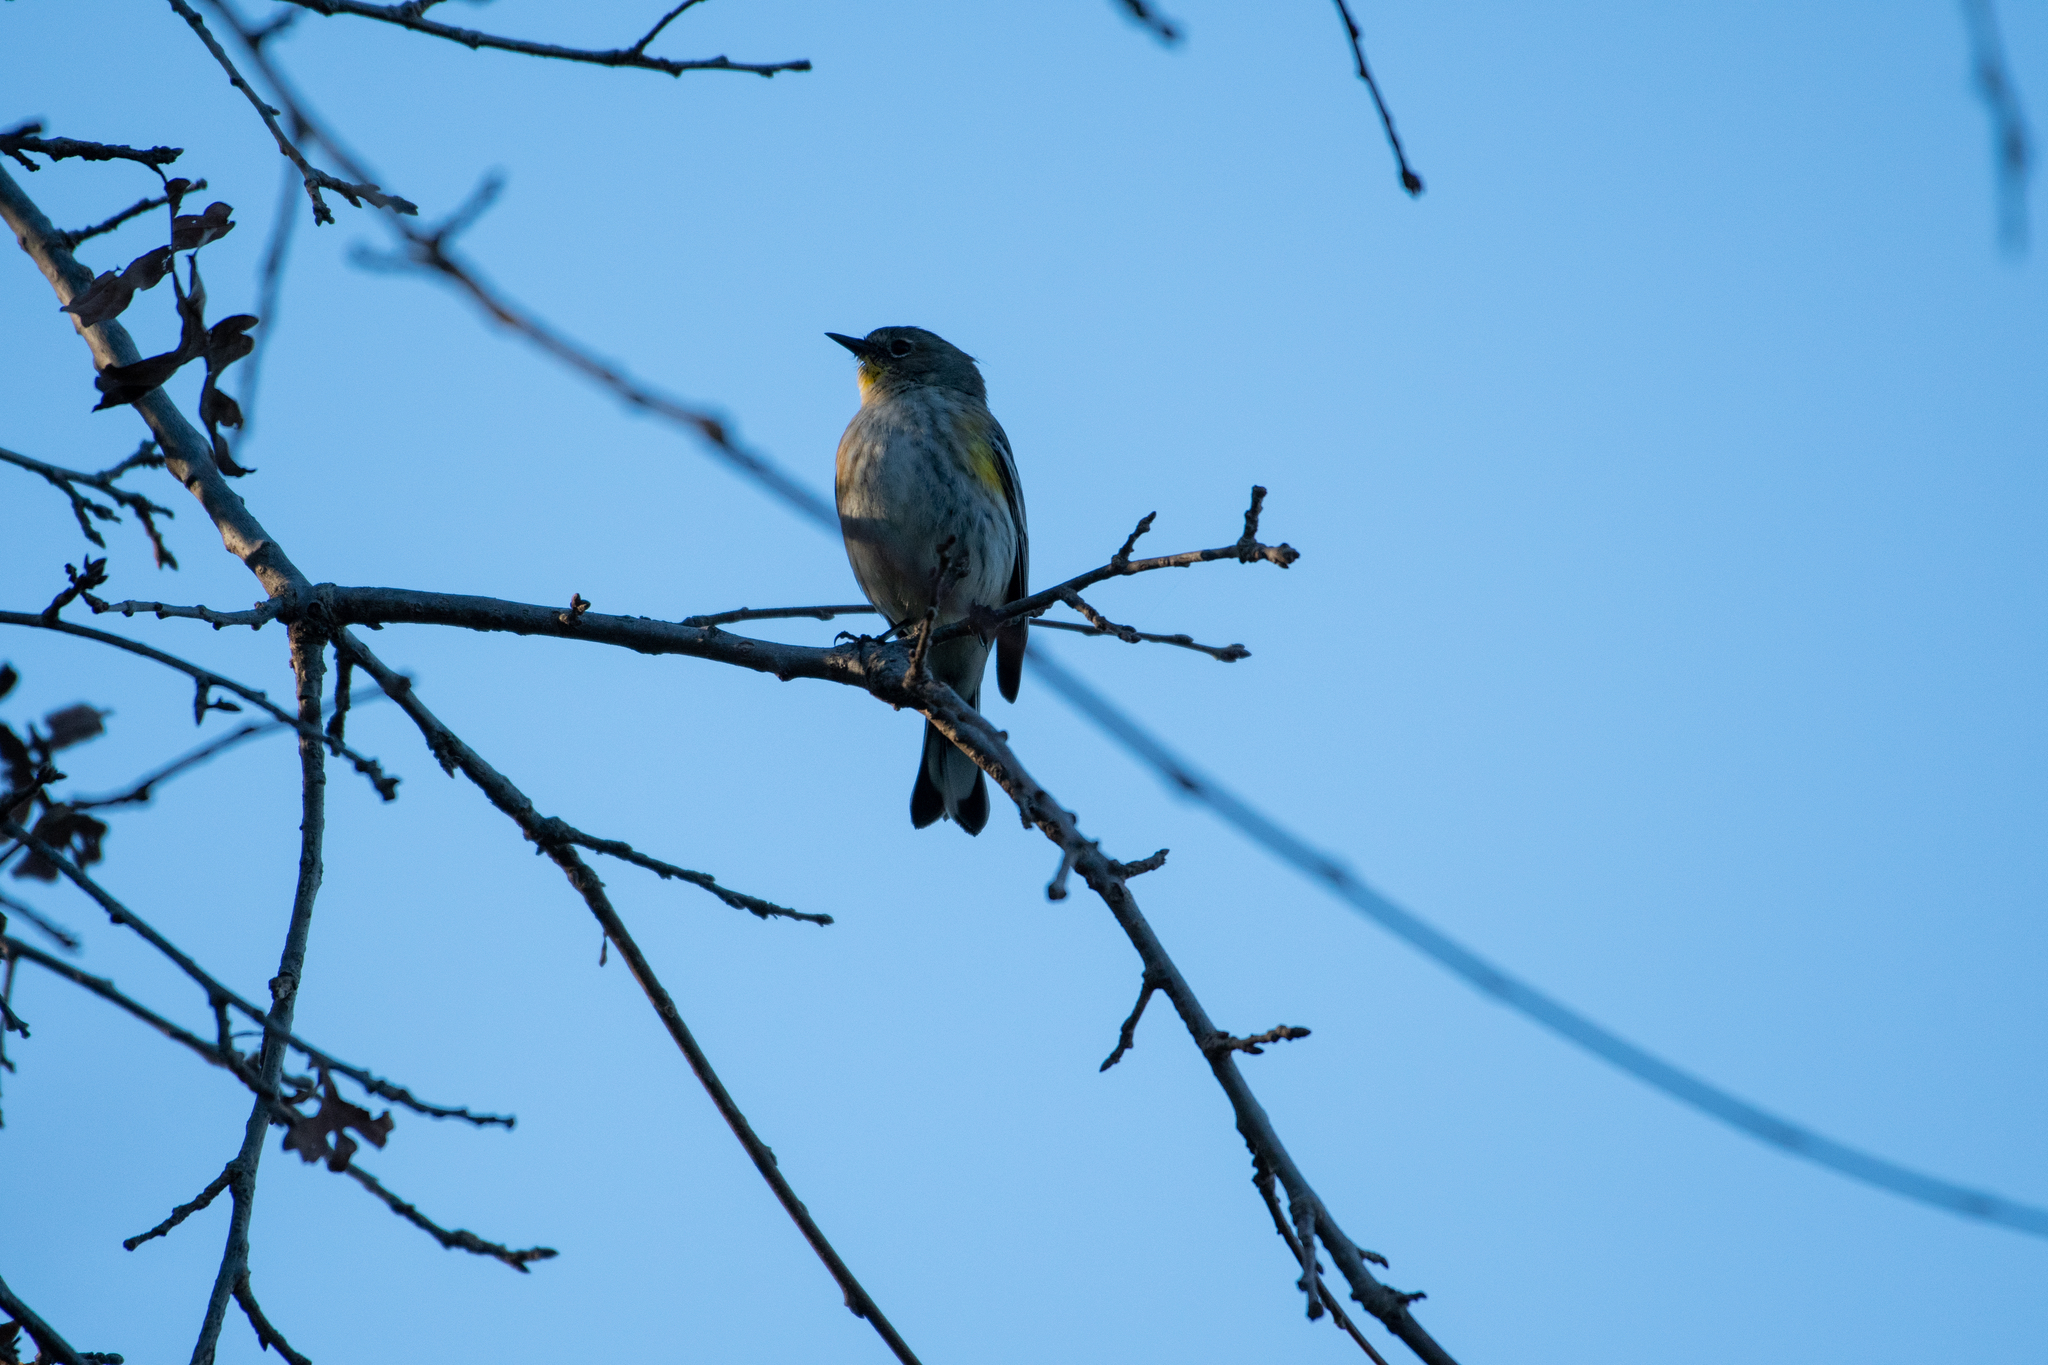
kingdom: Animalia
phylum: Chordata
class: Aves
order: Passeriformes
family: Parulidae
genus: Setophaga
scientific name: Setophaga coronata
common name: Myrtle warbler
